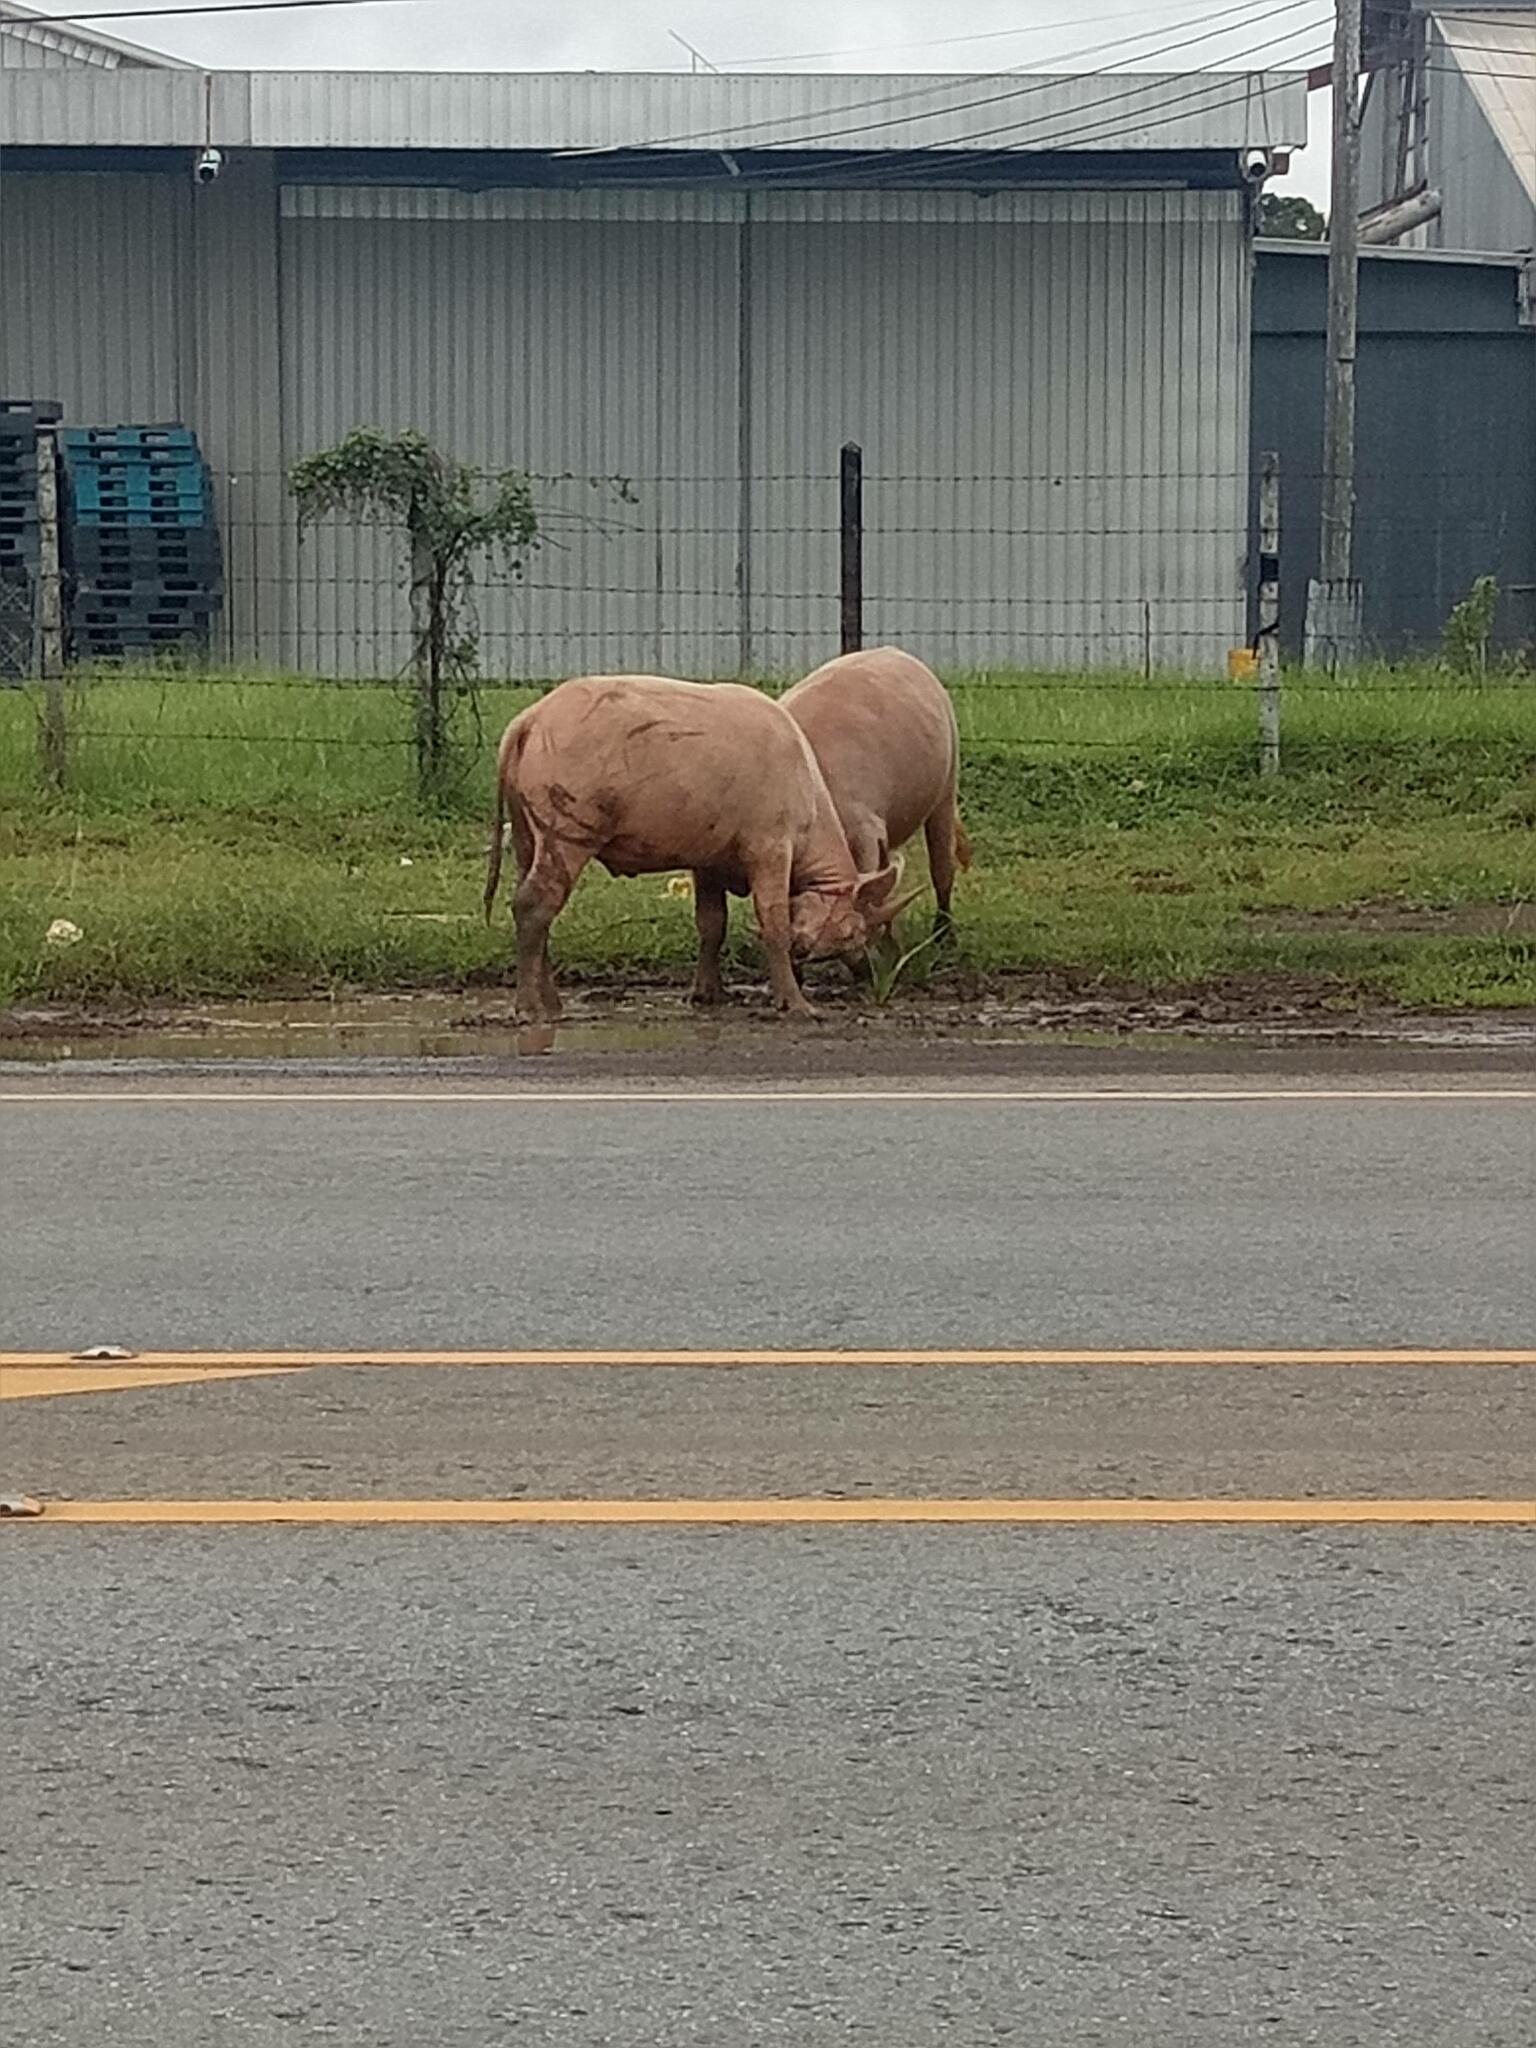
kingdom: Animalia
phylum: Chordata
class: Mammalia
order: Artiodactyla
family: Bovidae
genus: Bubalus
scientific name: Bubalus bubalis
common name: Water buffalo
